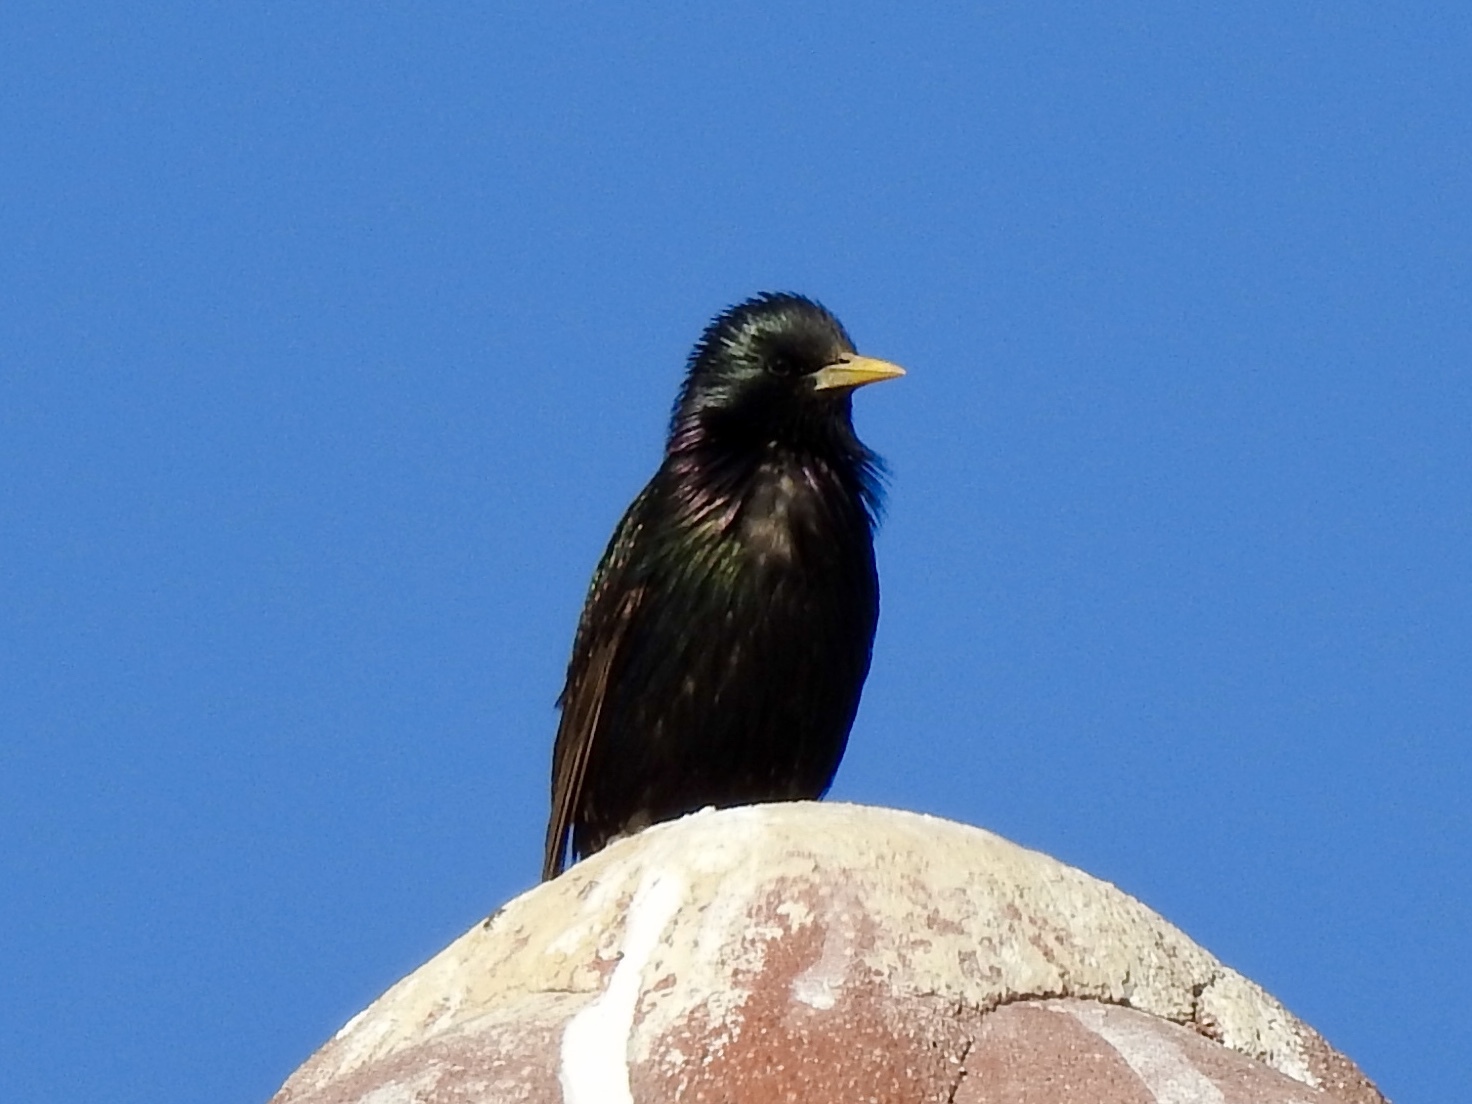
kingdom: Animalia
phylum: Chordata
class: Aves
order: Passeriformes
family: Sturnidae
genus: Sturnus
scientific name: Sturnus vulgaris
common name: Common starling
